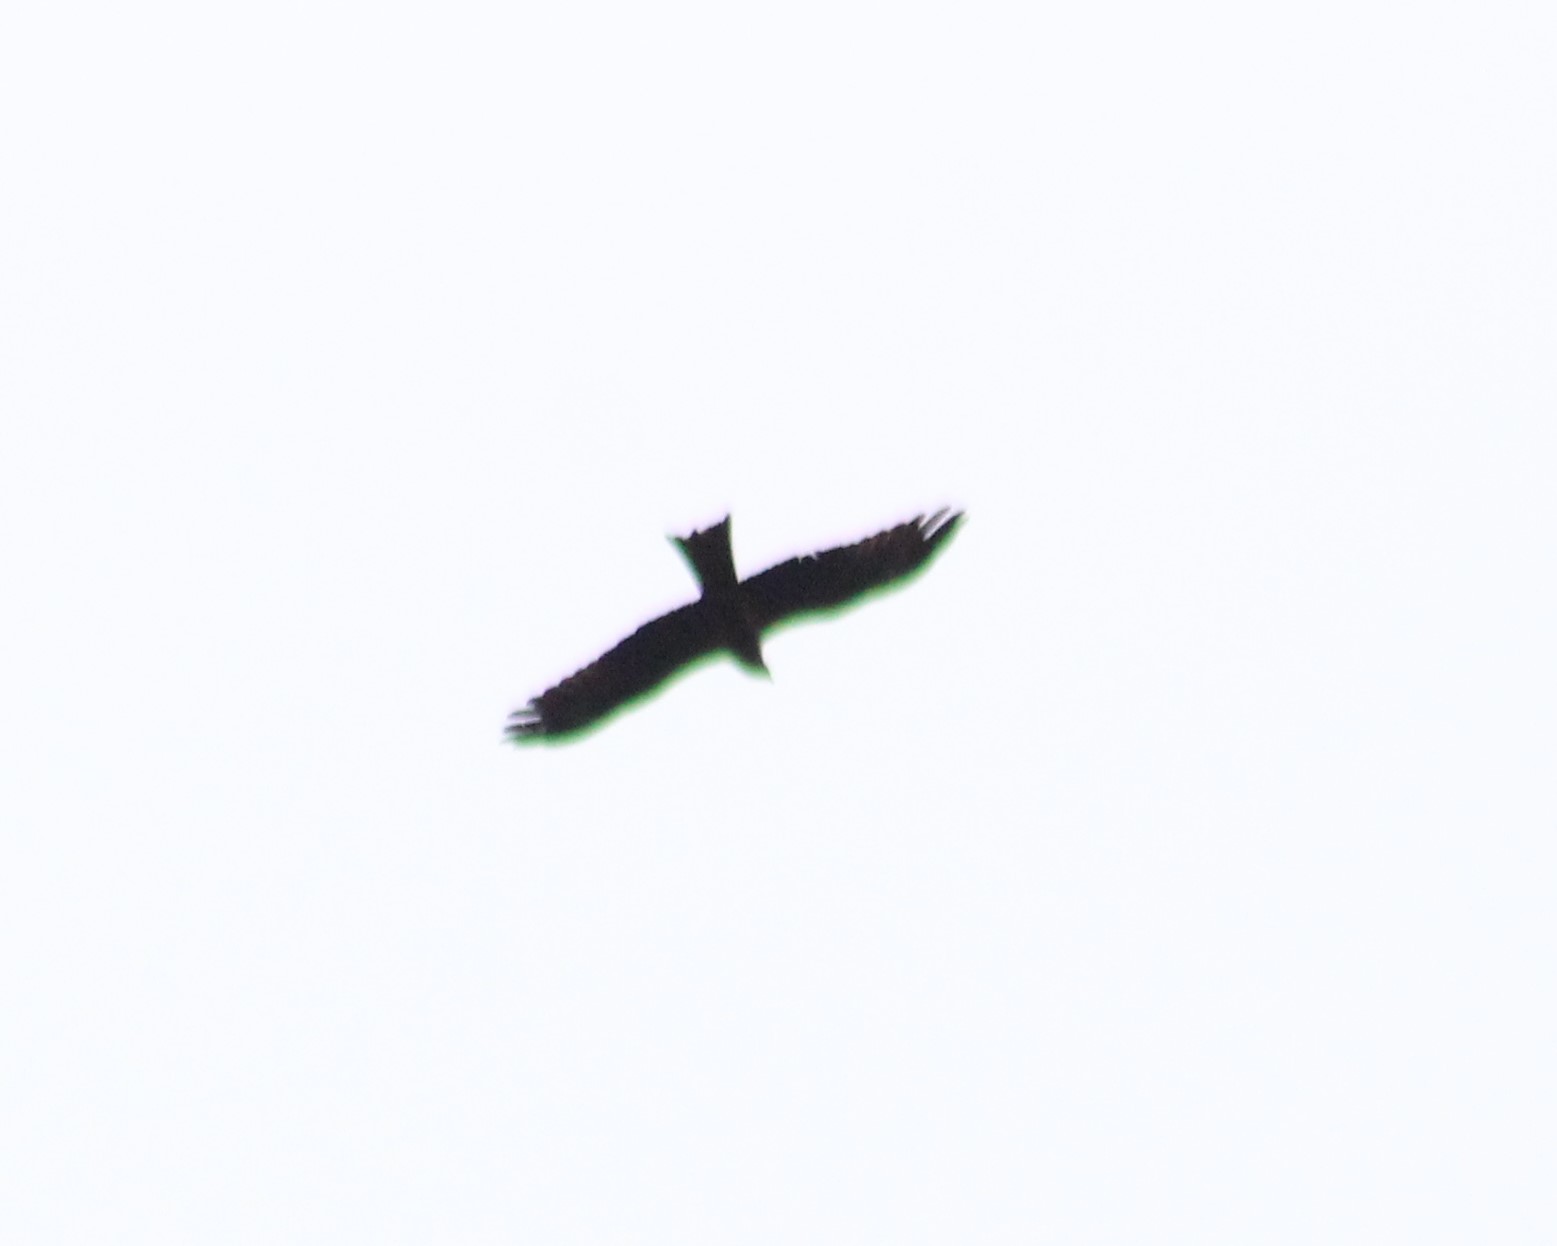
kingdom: Animalia
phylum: Chordata
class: Aves
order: Accipitriformes
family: Accipitridae
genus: Milvus
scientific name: Milvus migrans
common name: Black kite
